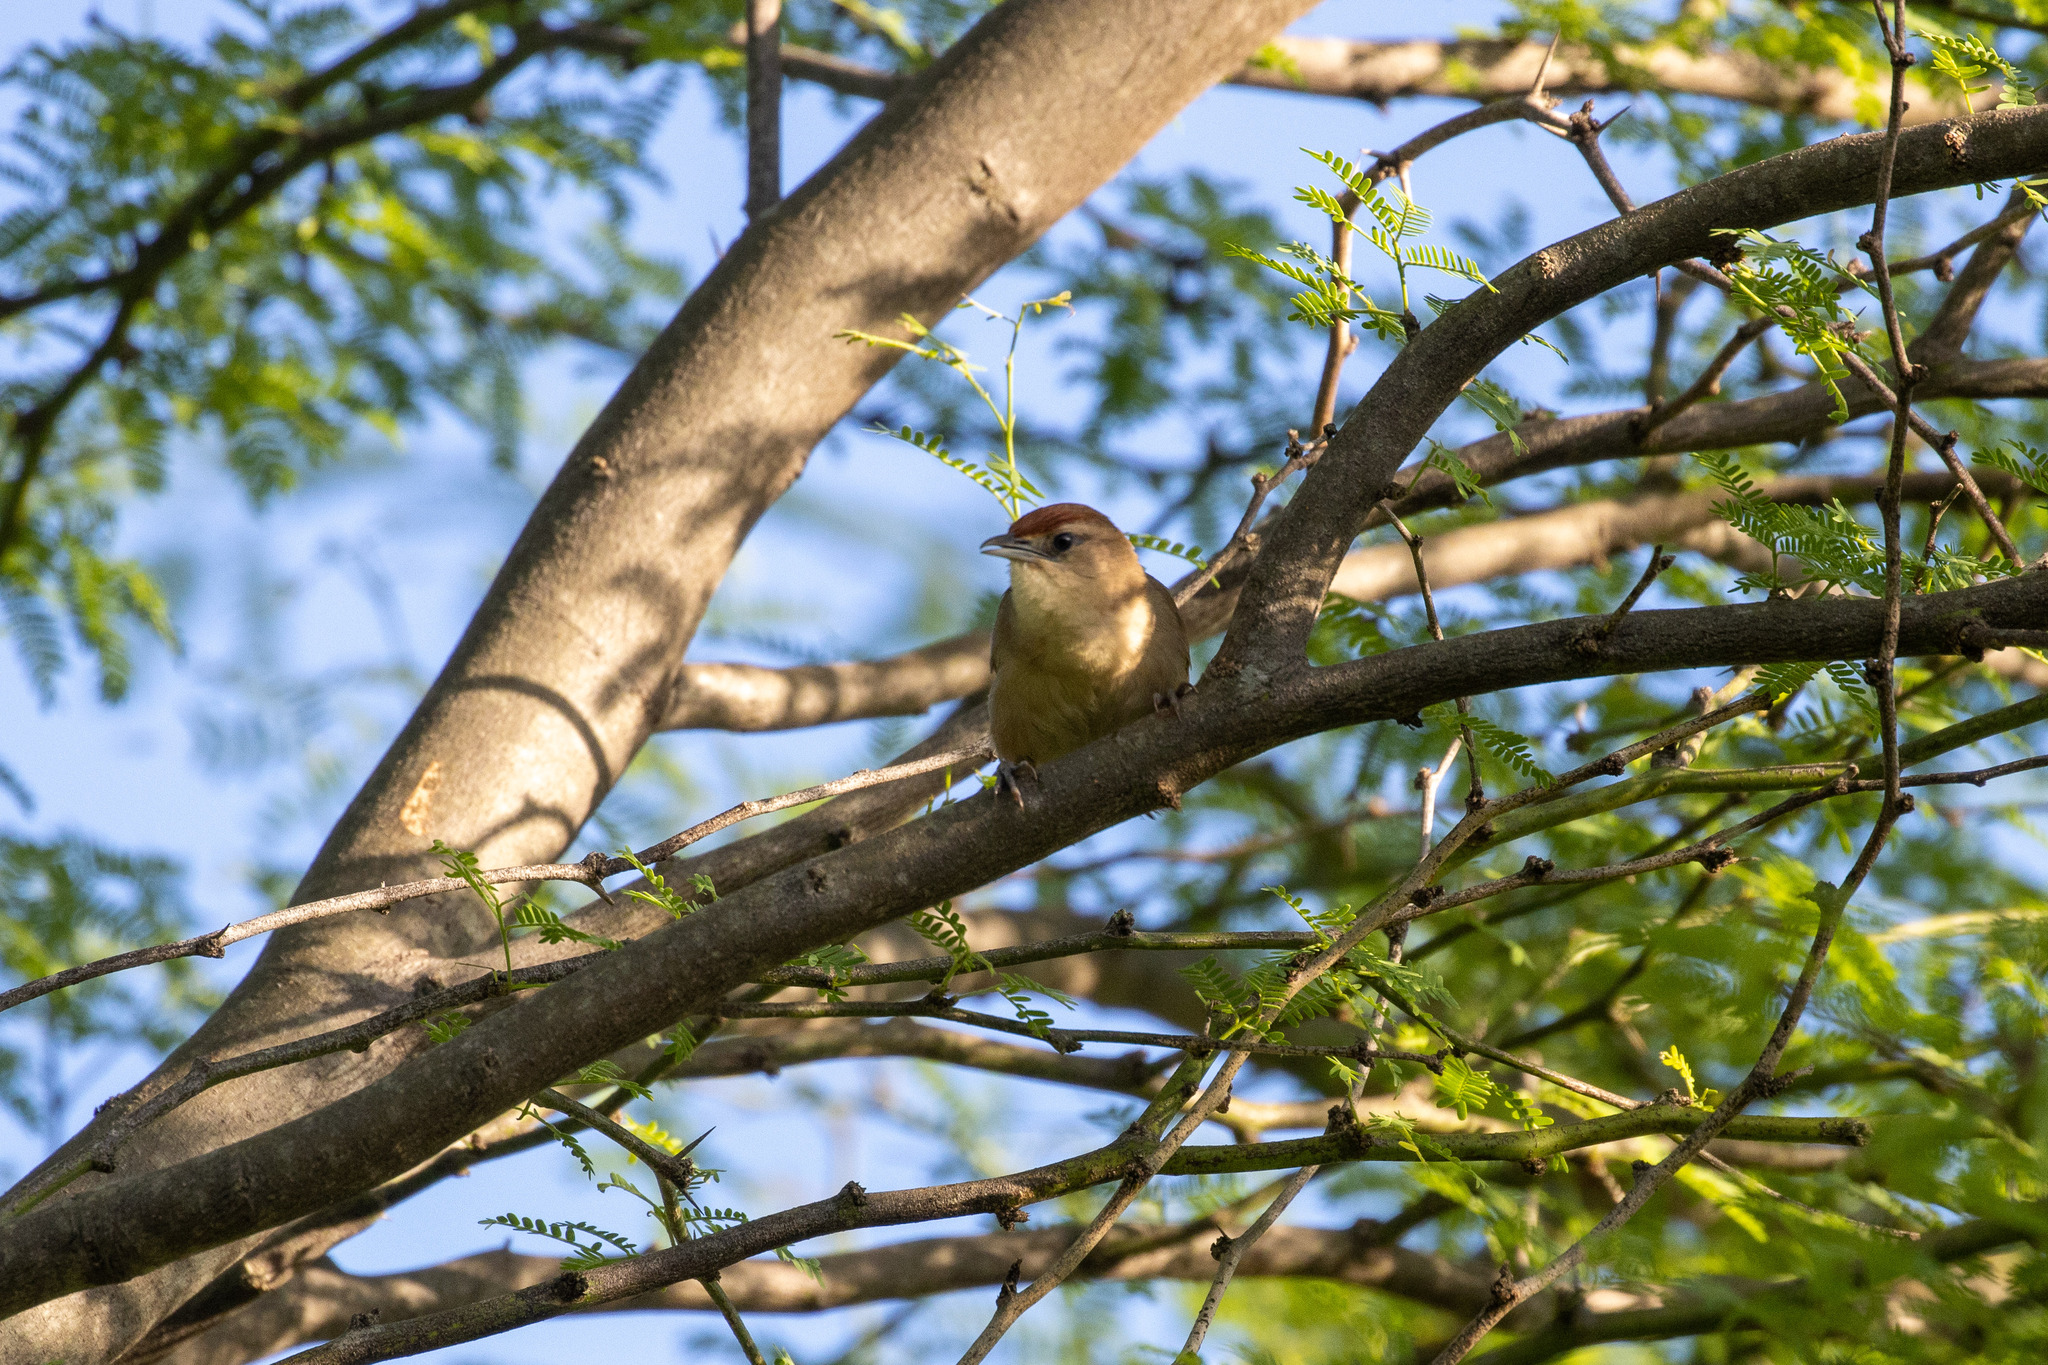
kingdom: Animalia
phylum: Chordata
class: Aves
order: Passeriformes
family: Furnariidae
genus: Phacellodomus
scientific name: Phacellodomus rufifrons
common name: Rufous-fronted thornbird
